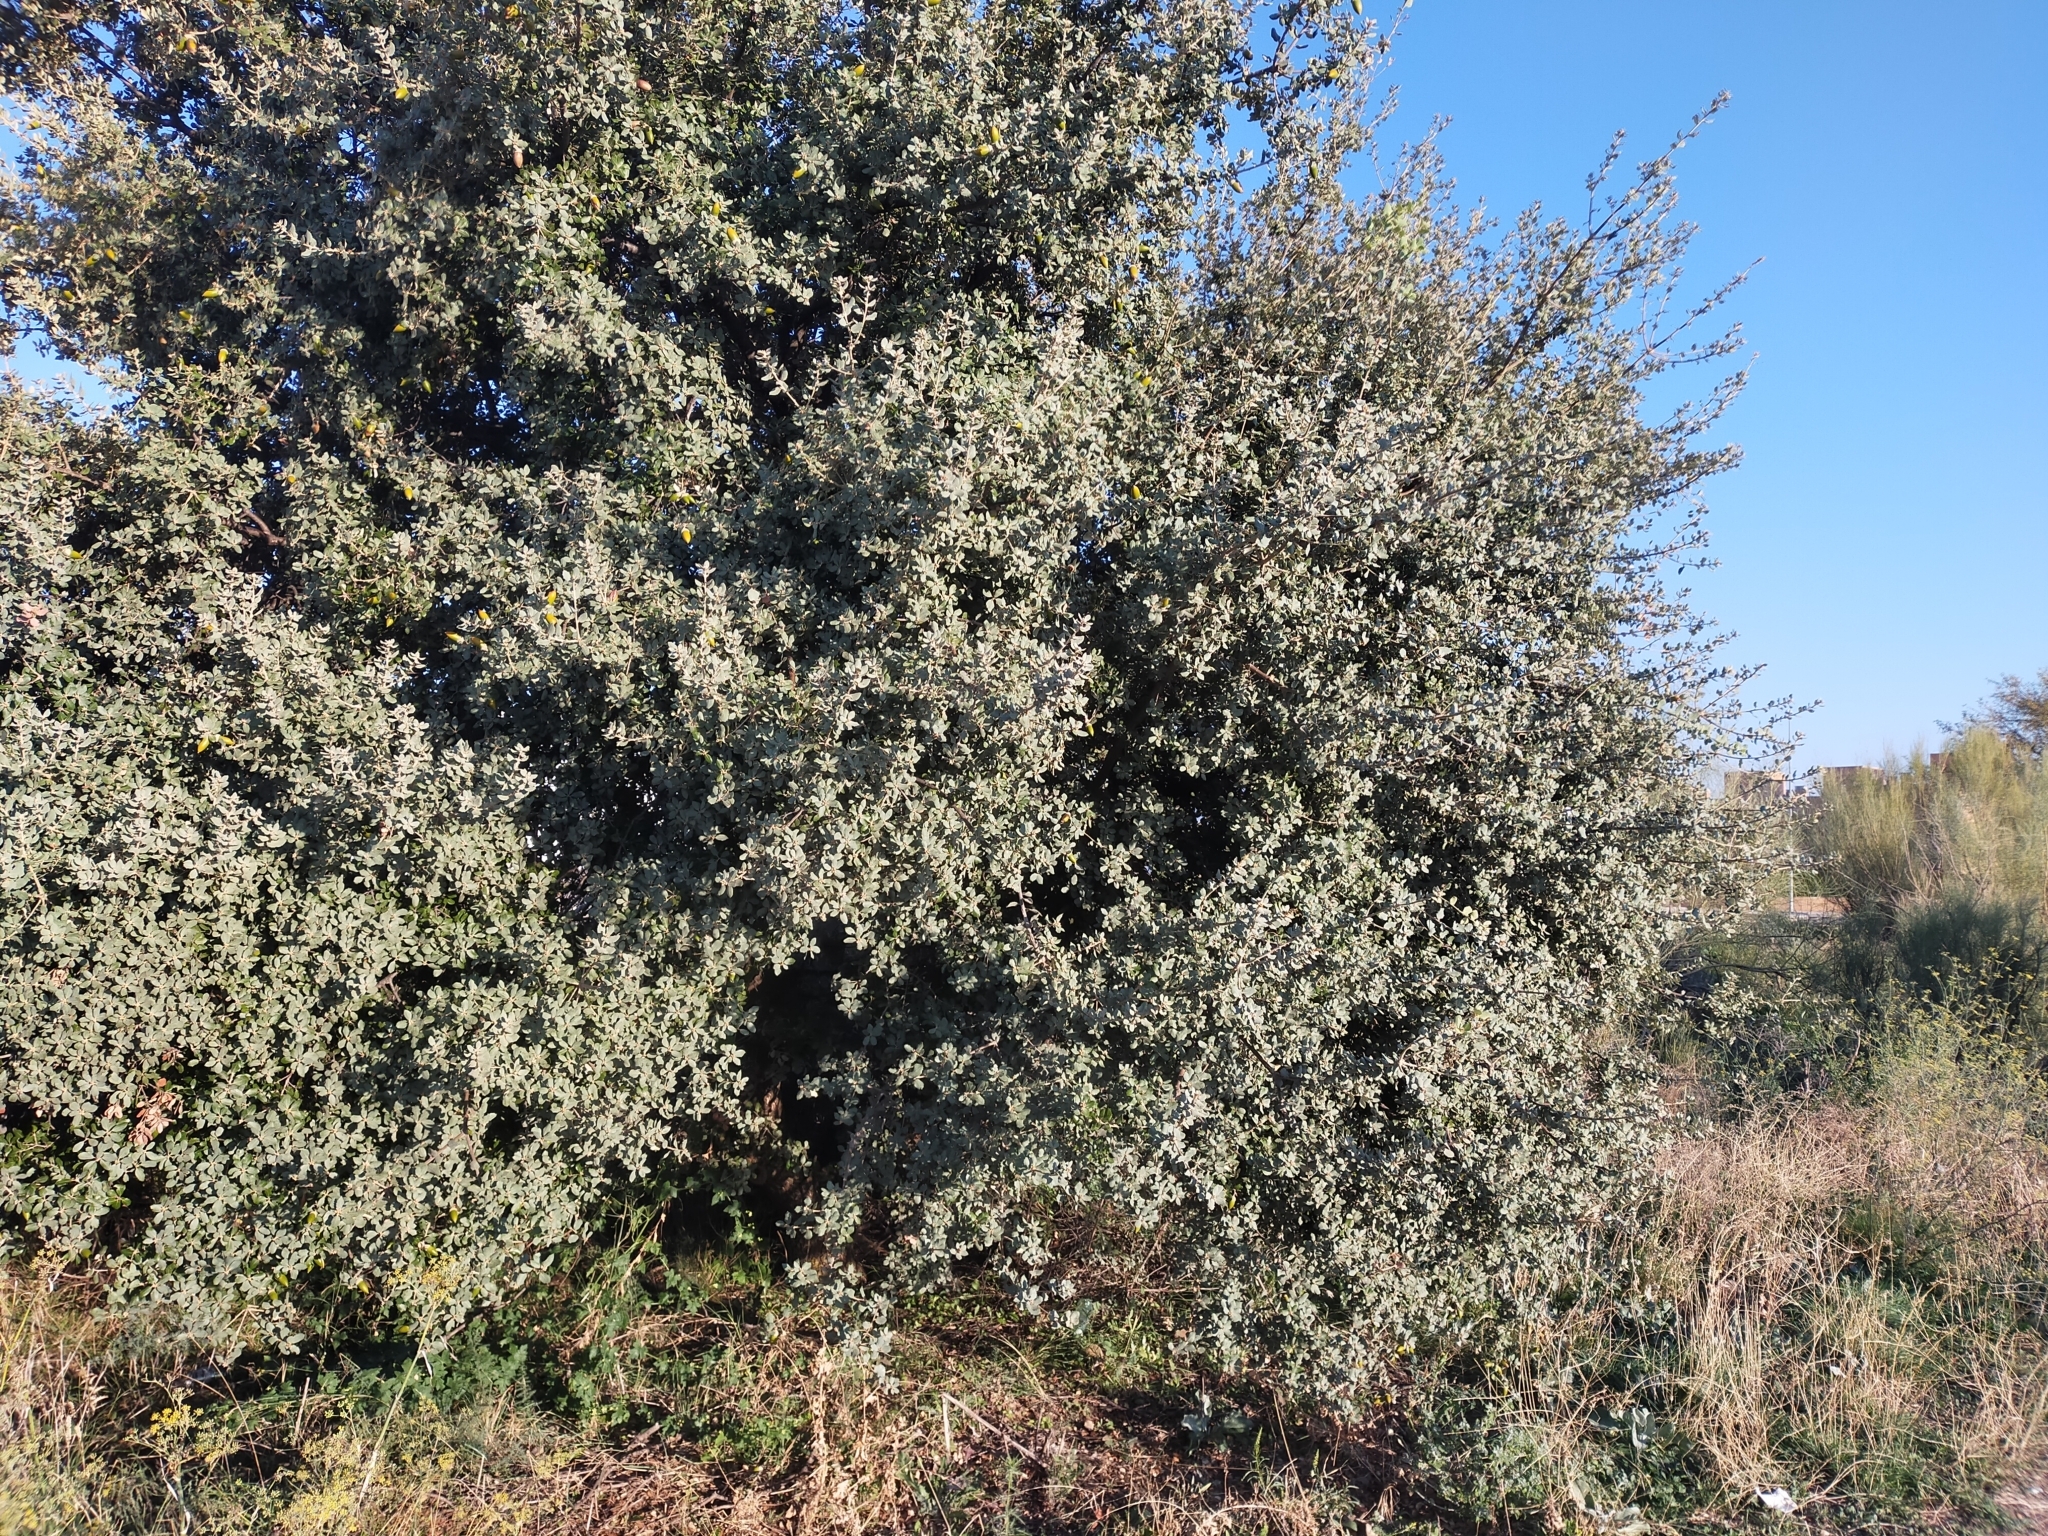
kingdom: Plantae
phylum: Tracheophyta
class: Magnoliopsida
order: Fagales
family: Fagaceae
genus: Quercus
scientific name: Quercus rotundifolia
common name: Holm oak
